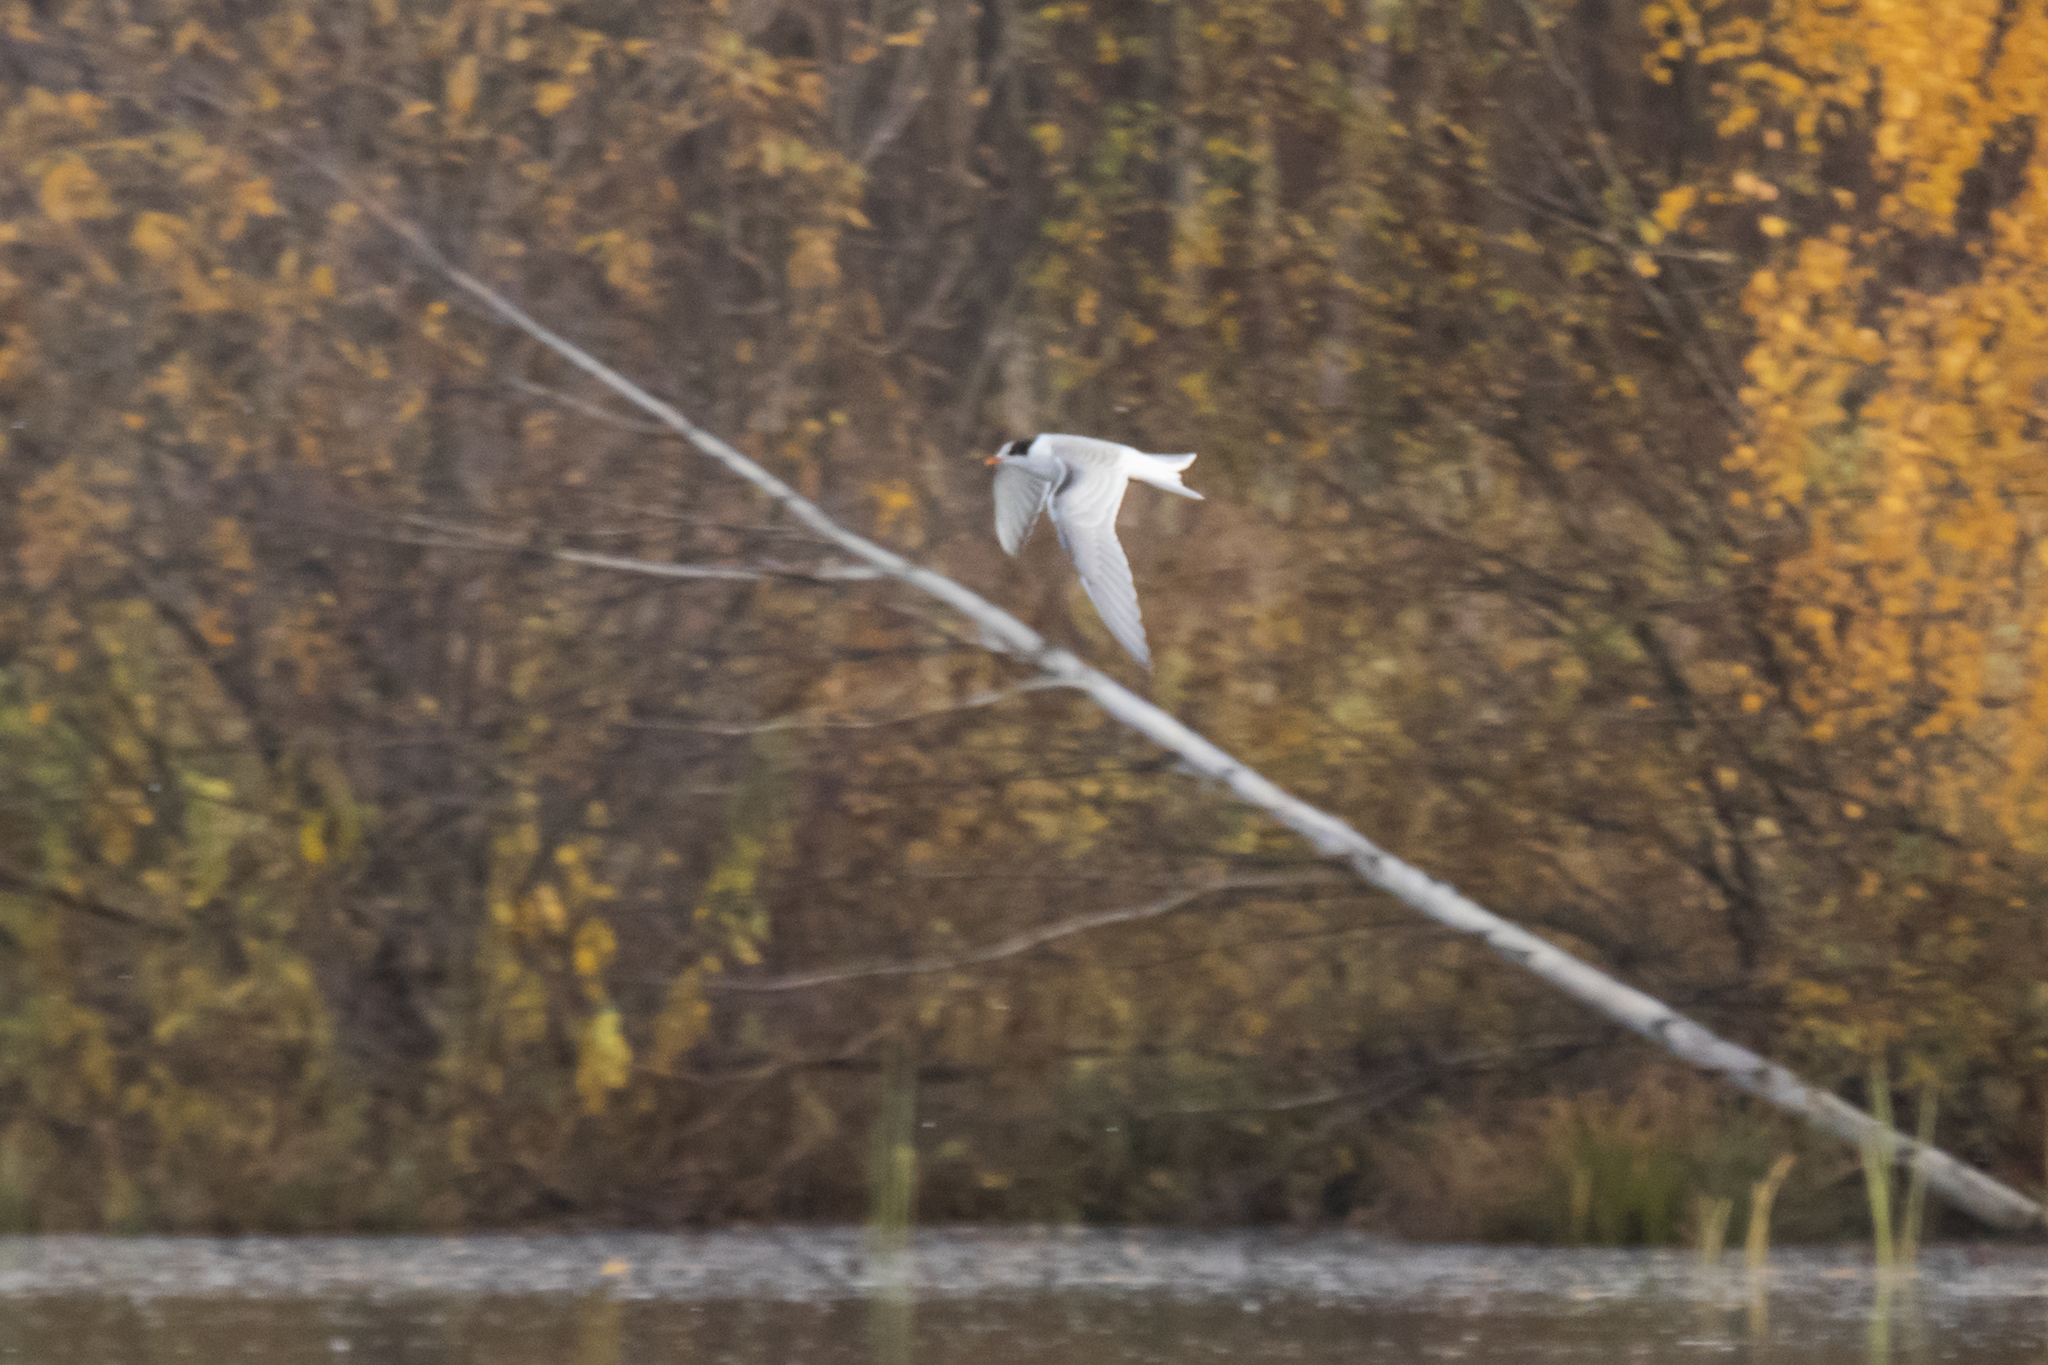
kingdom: Animalia
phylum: Chordata
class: Aves
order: Charadriiformes
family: Laridae
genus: Sterna
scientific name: Sterna hirundo
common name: Common tern
